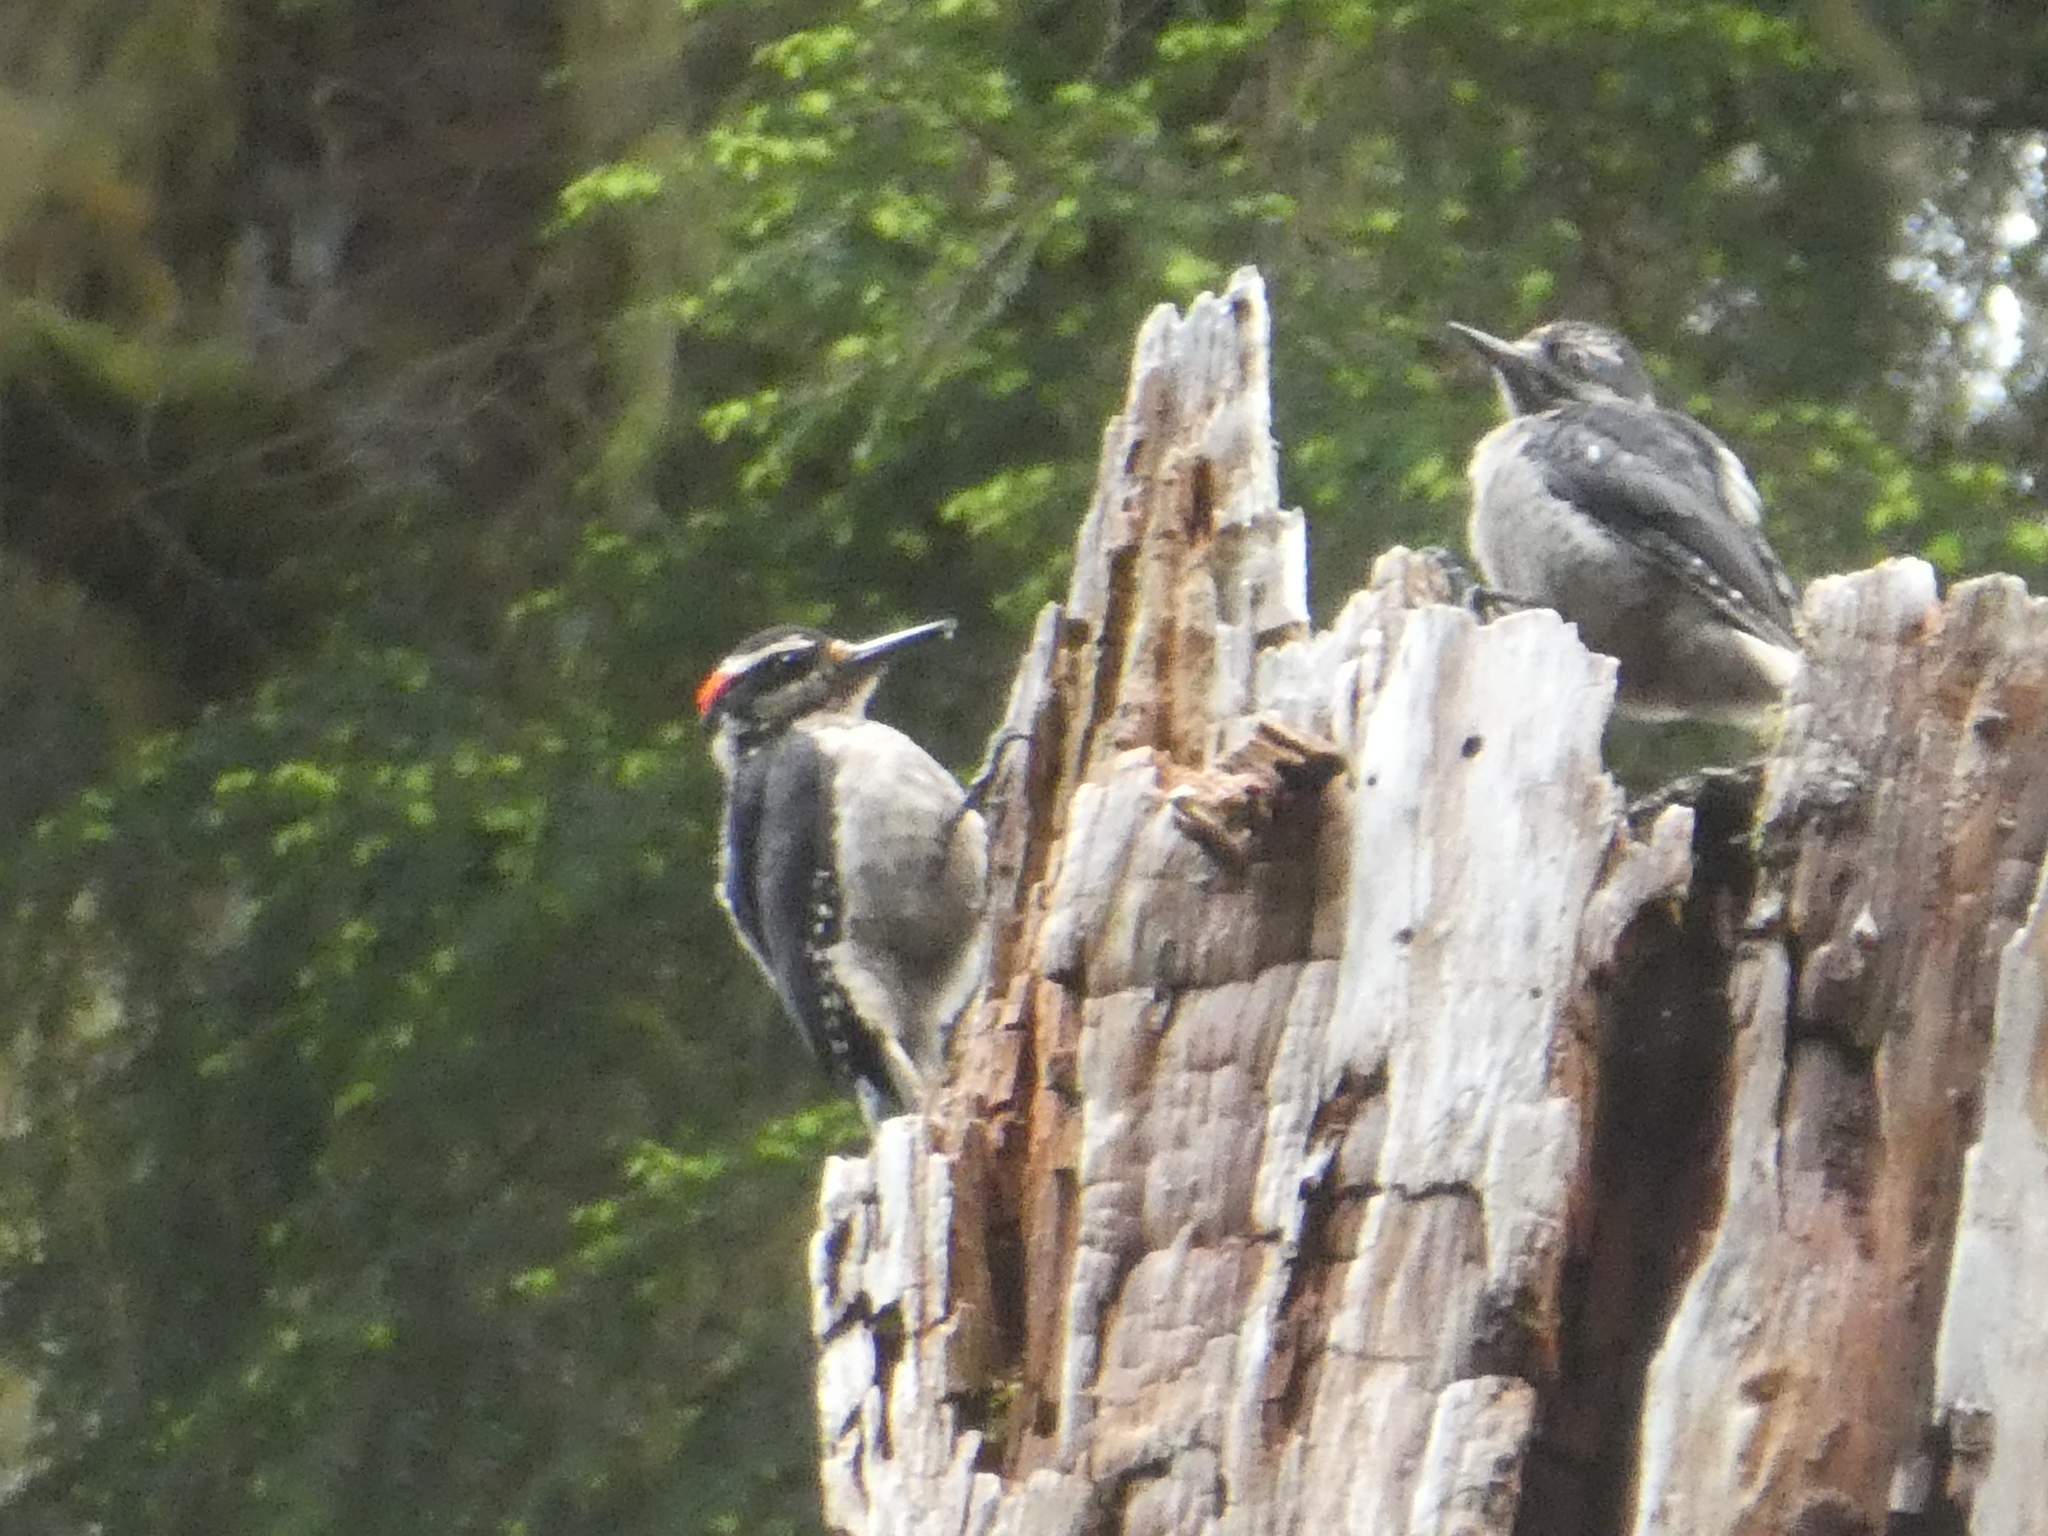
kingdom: Animalia
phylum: Chordata
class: Aves
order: Piciformes
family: Picidae
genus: Leuconotopicus
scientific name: Leuconotopicus villosus
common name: Hairy woodpecker
